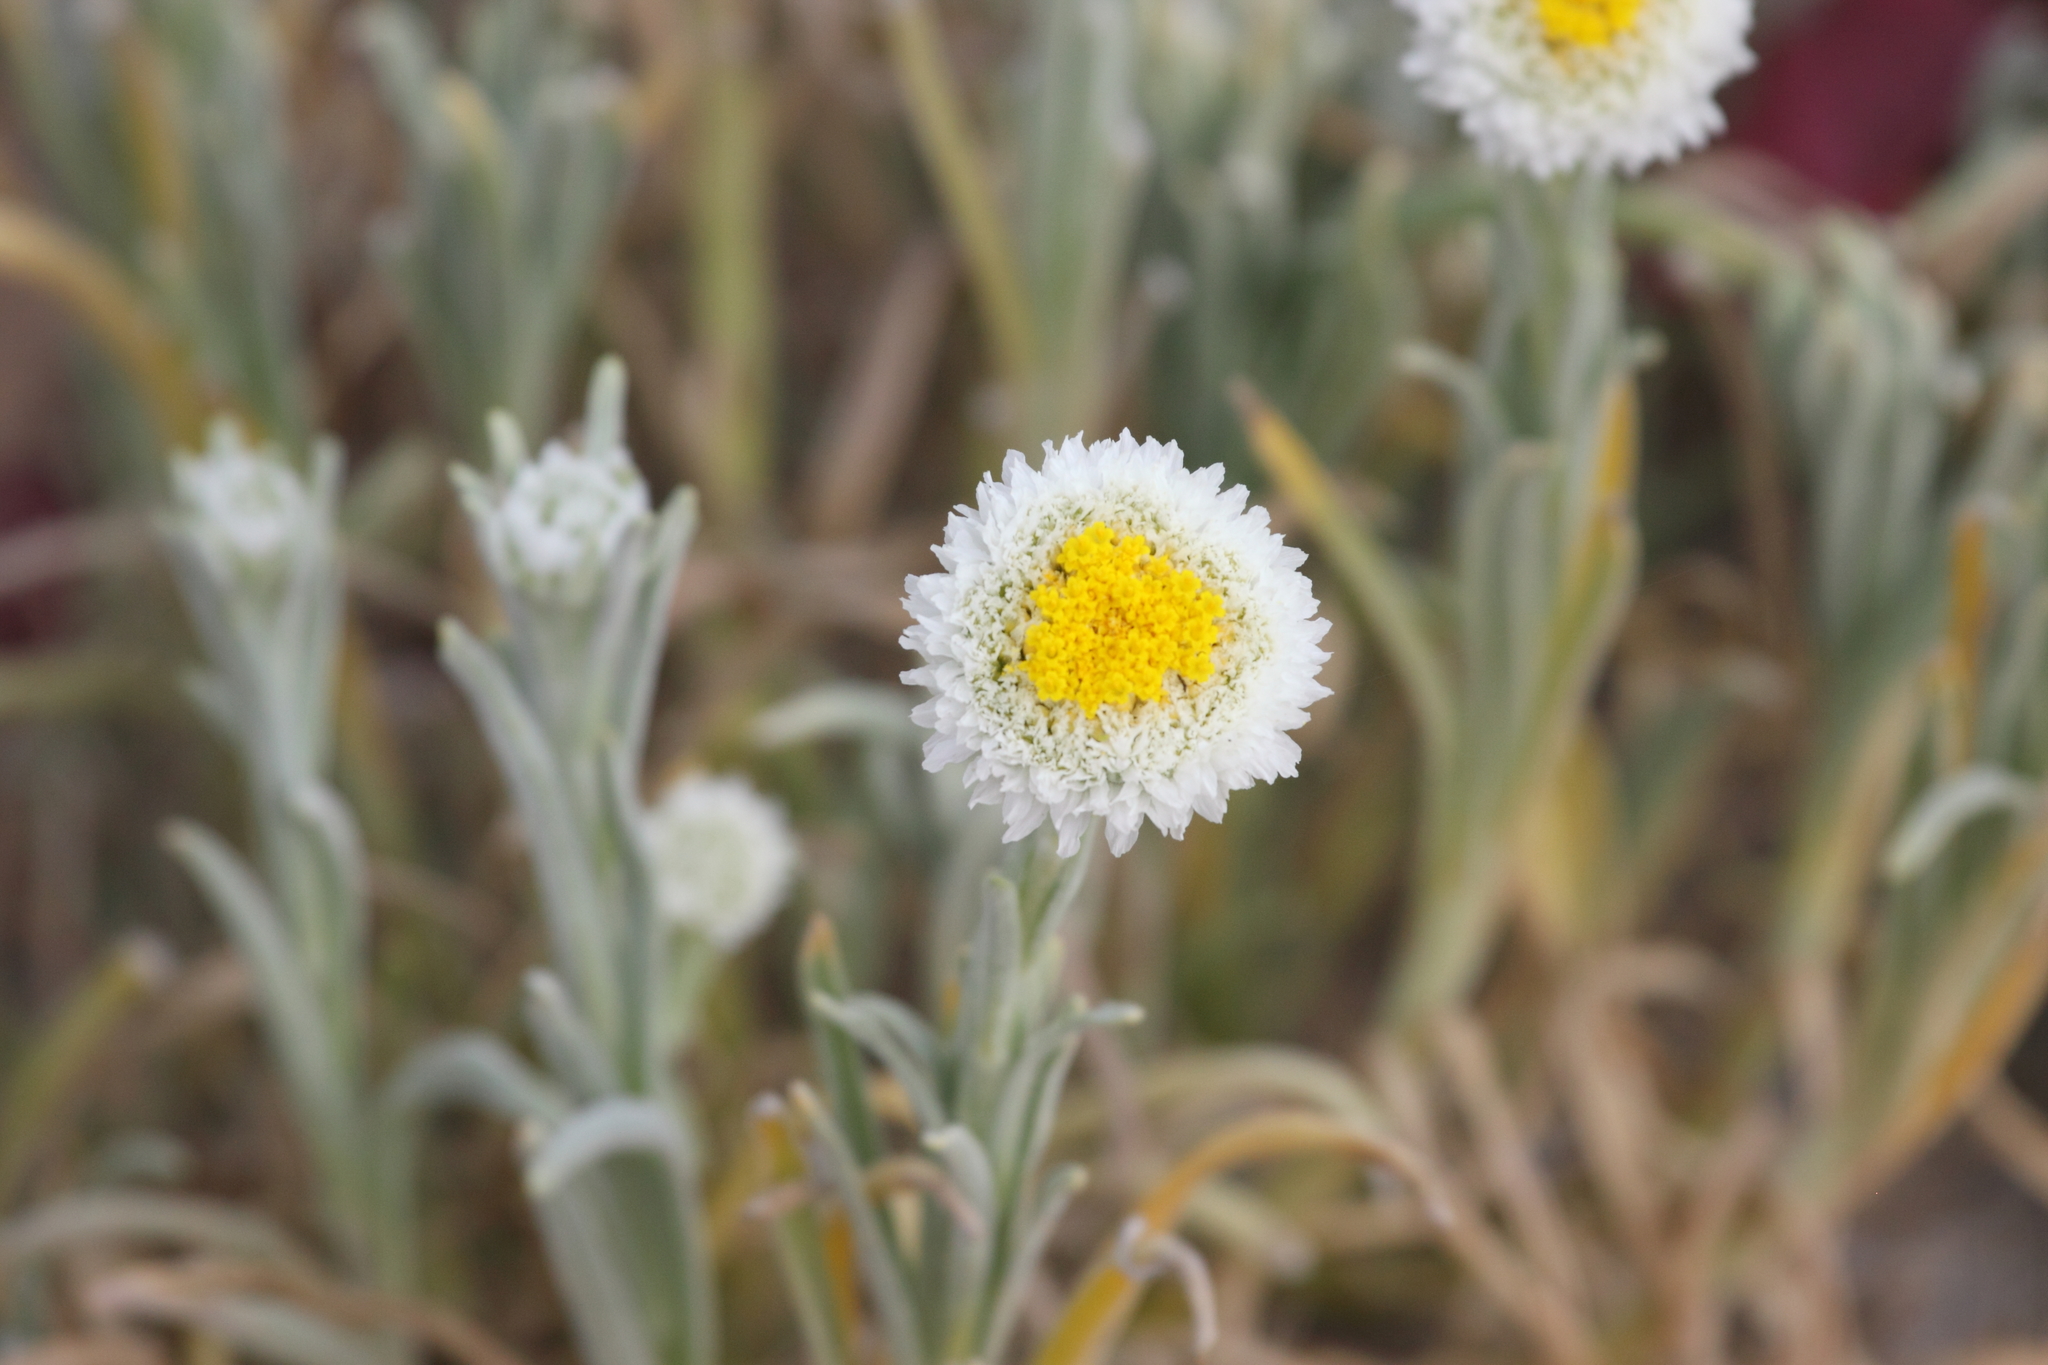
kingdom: Plantae
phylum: Tracheophyta
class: Magnoliopsida
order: Asterales
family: Asteraceae
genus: Polycalymma
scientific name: Polycalymma stuartii
